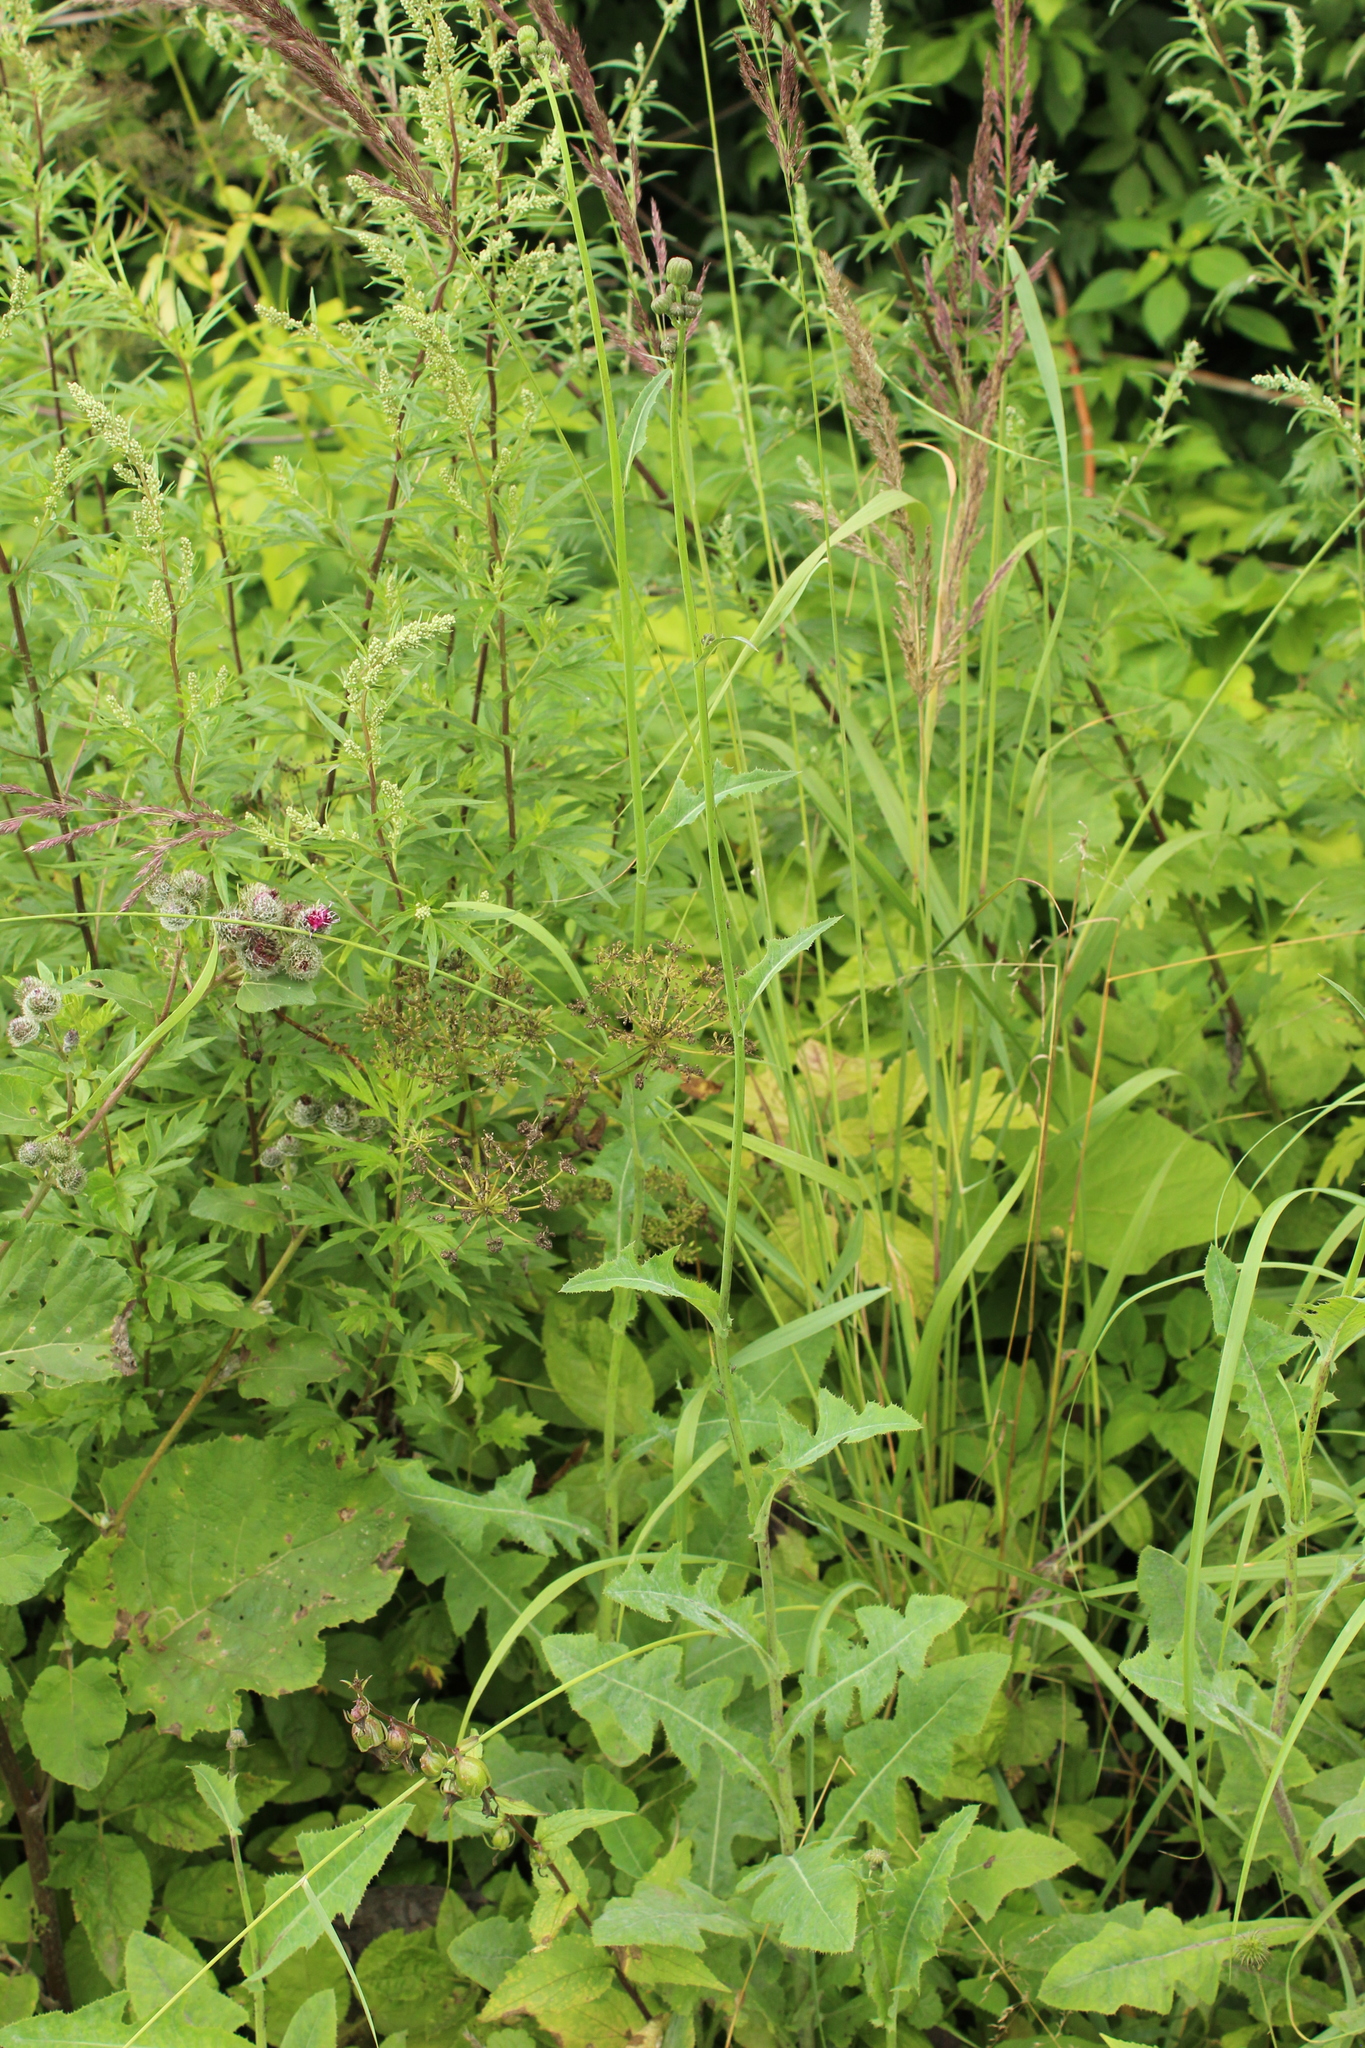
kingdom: Plantae
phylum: Tracheophyta
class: Magnoliopsida
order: Asterales
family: Asteraceae
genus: Sonchus
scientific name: Sonchus arvensis
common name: Perennial sow-thistle
